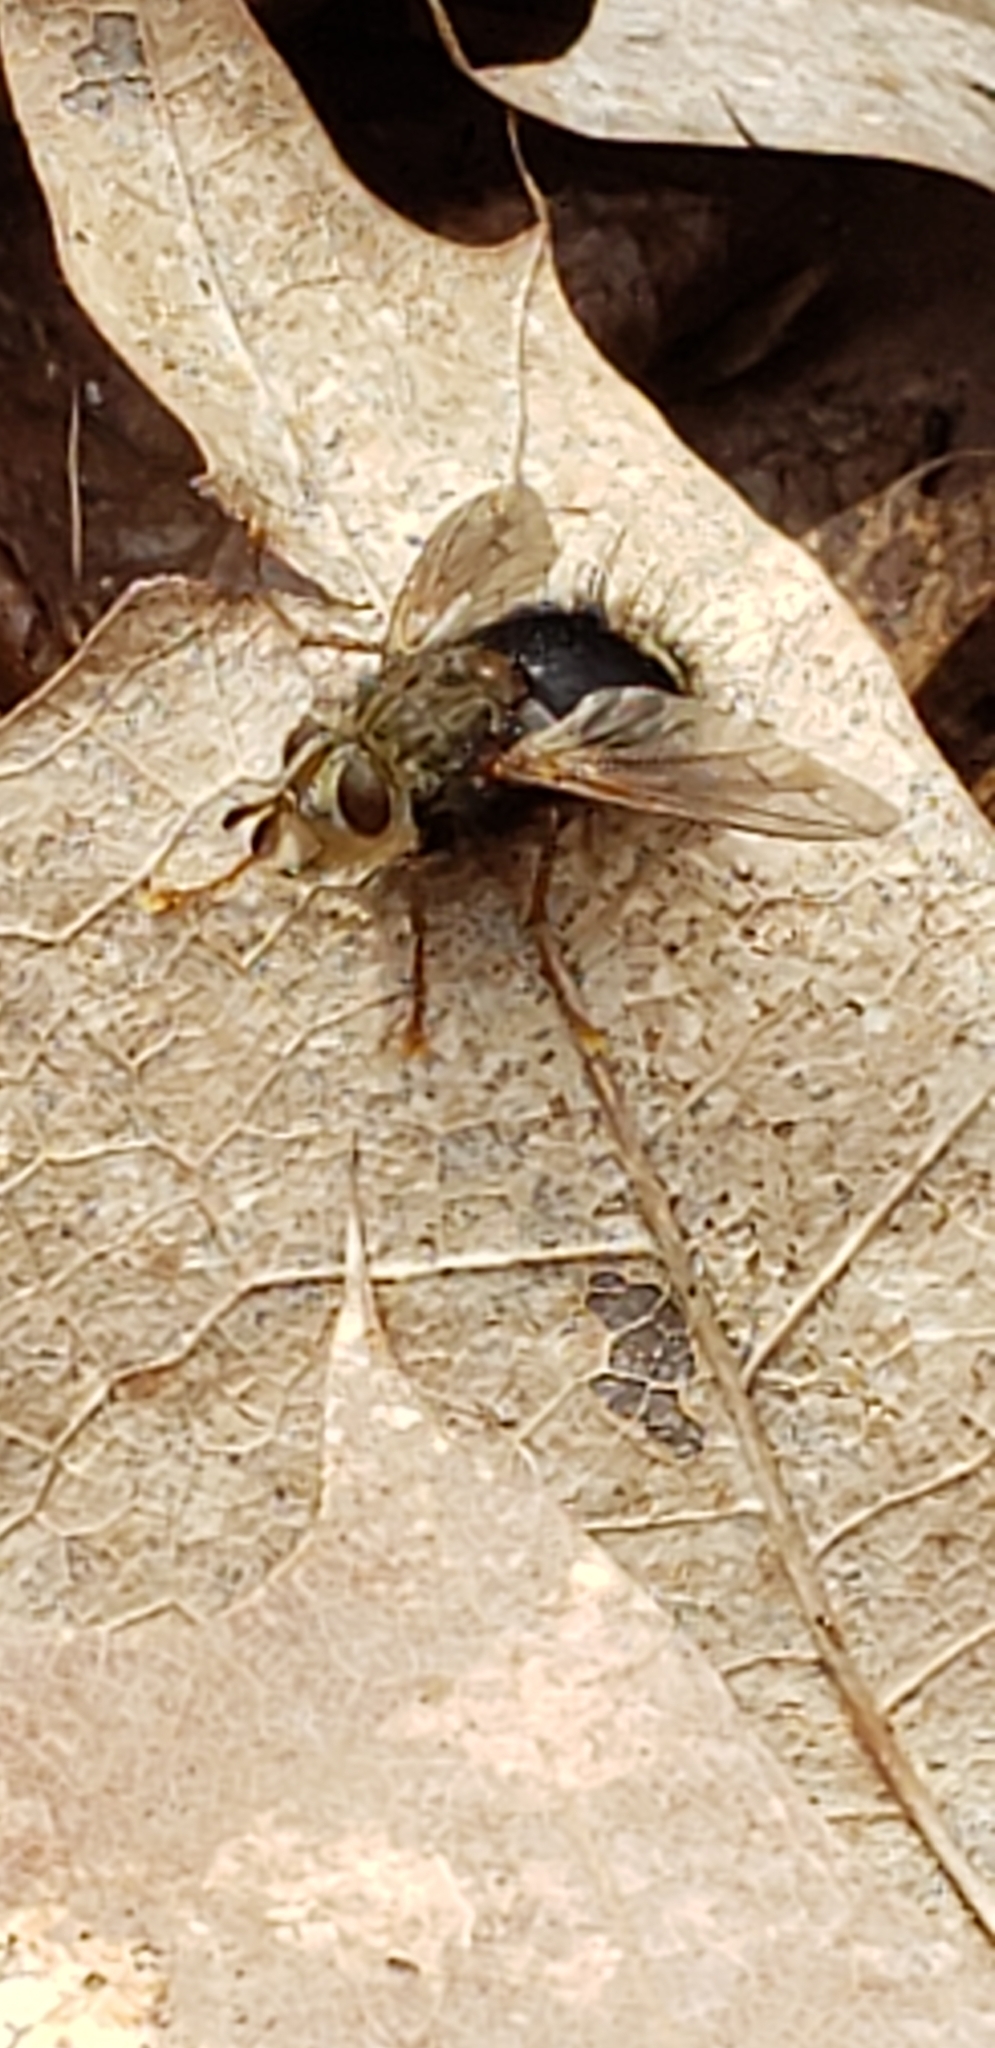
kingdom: Animalia
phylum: Arthropoda
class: Insecta
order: Diptera
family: Tachinidae
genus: Epalpus
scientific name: Epalpus signifer
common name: Early tachinid fly
